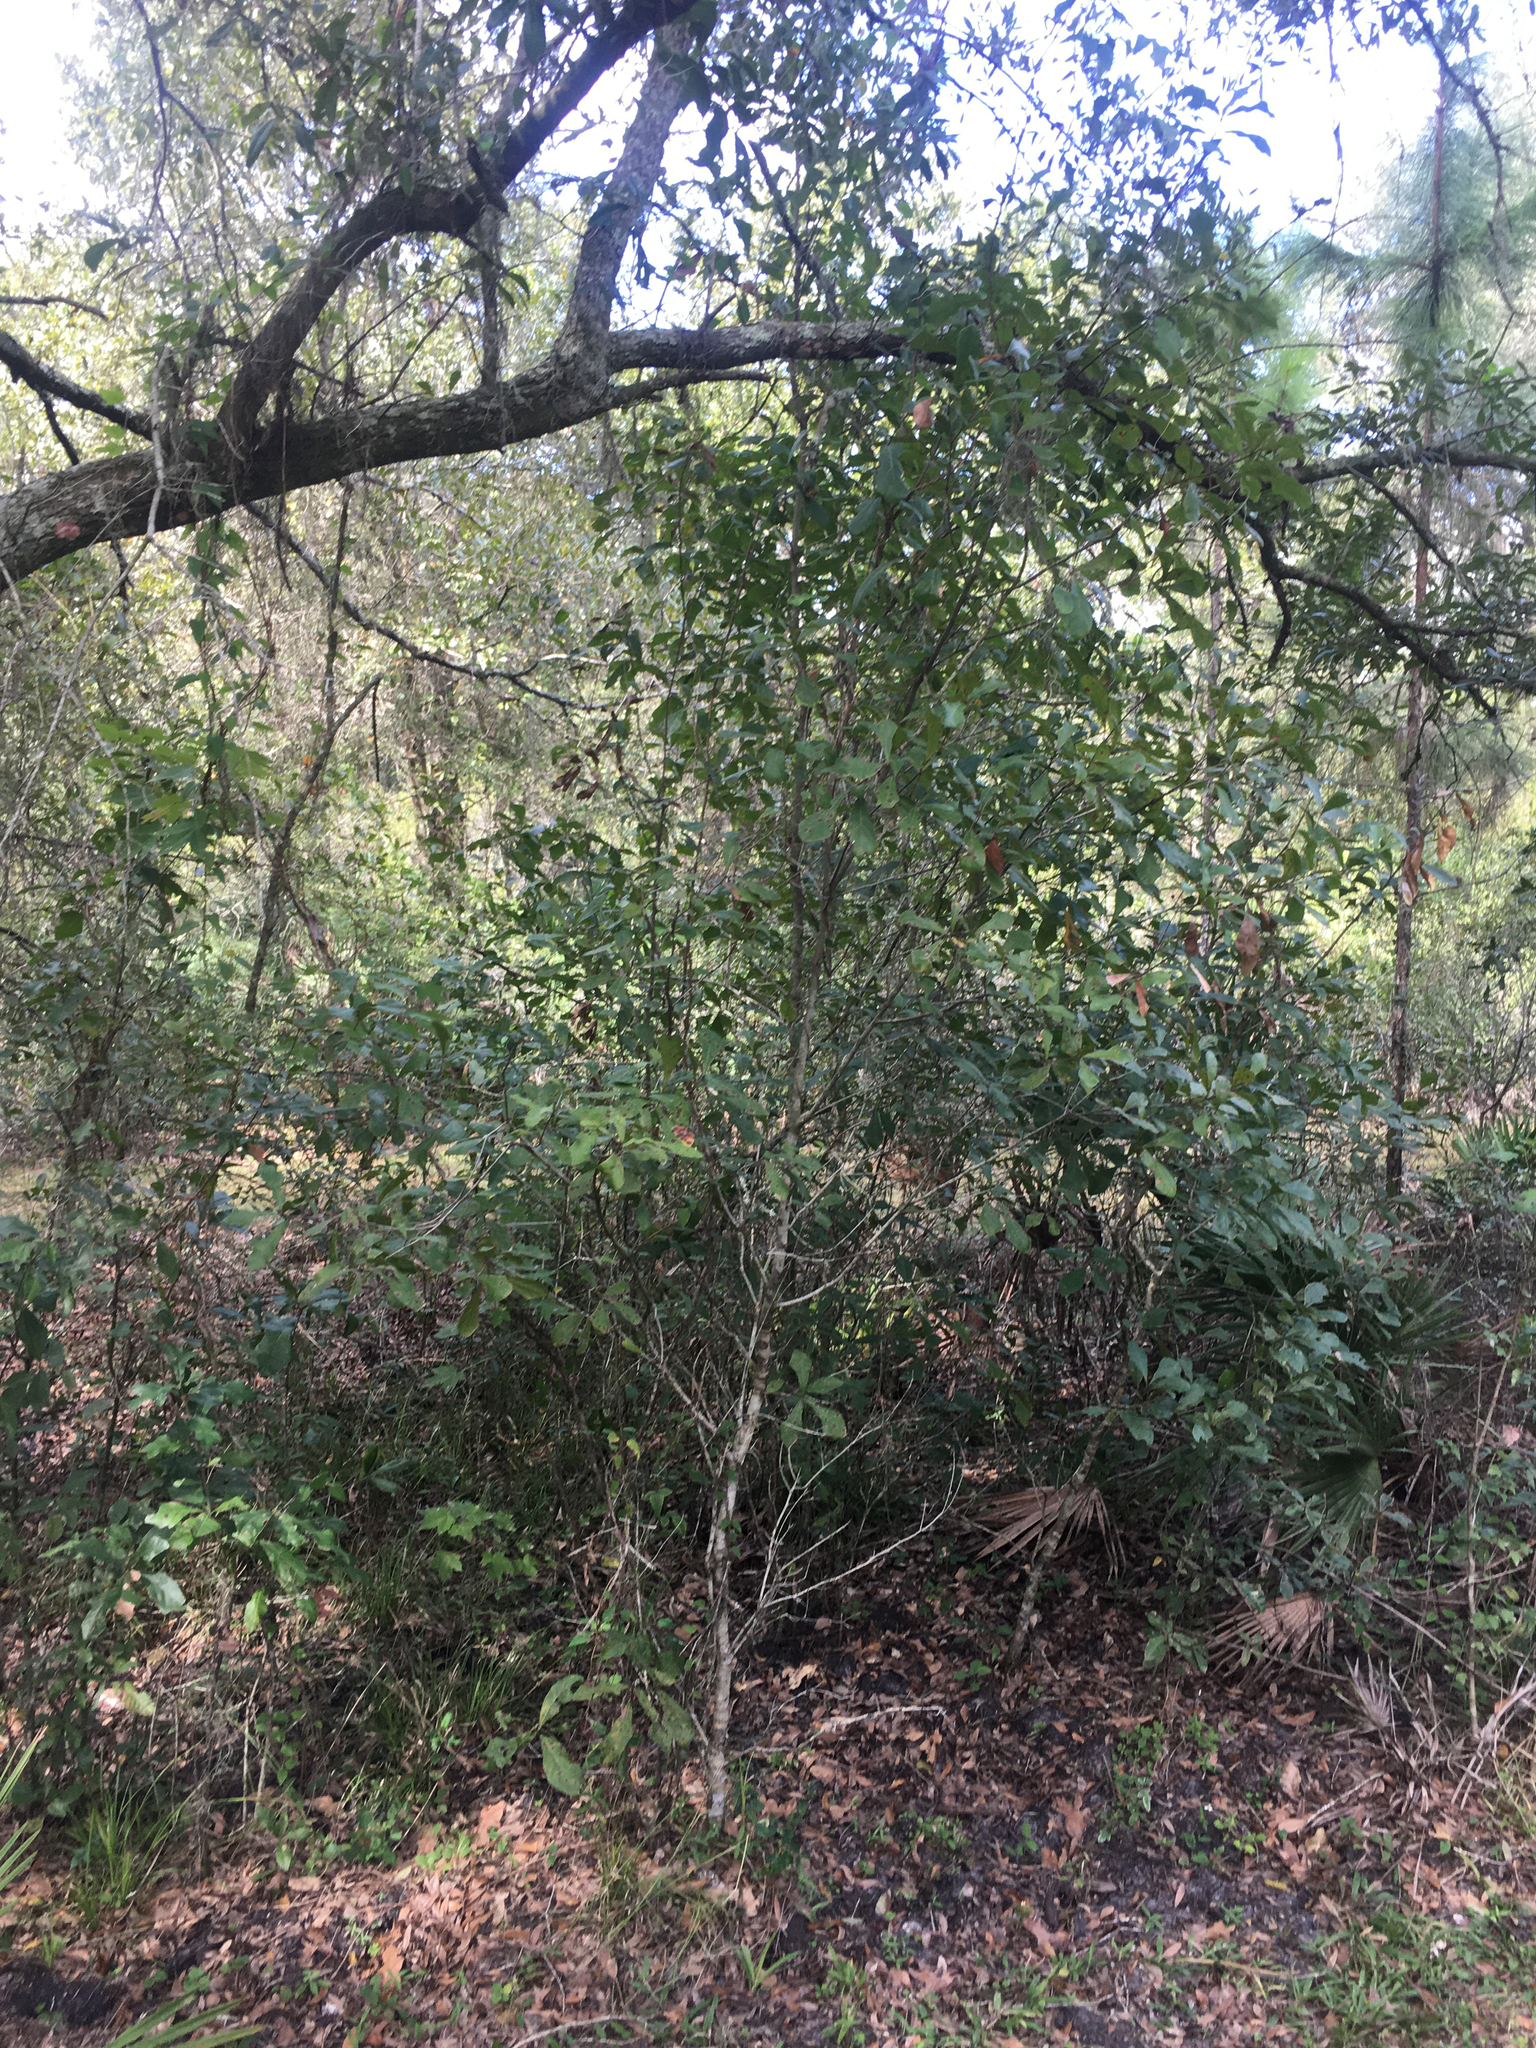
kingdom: Plantae
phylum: Tracheophyta
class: Magnoliopsida
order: Fagales
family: Fagaceae
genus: Quercus
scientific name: Quercus nigra
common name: Water oak
